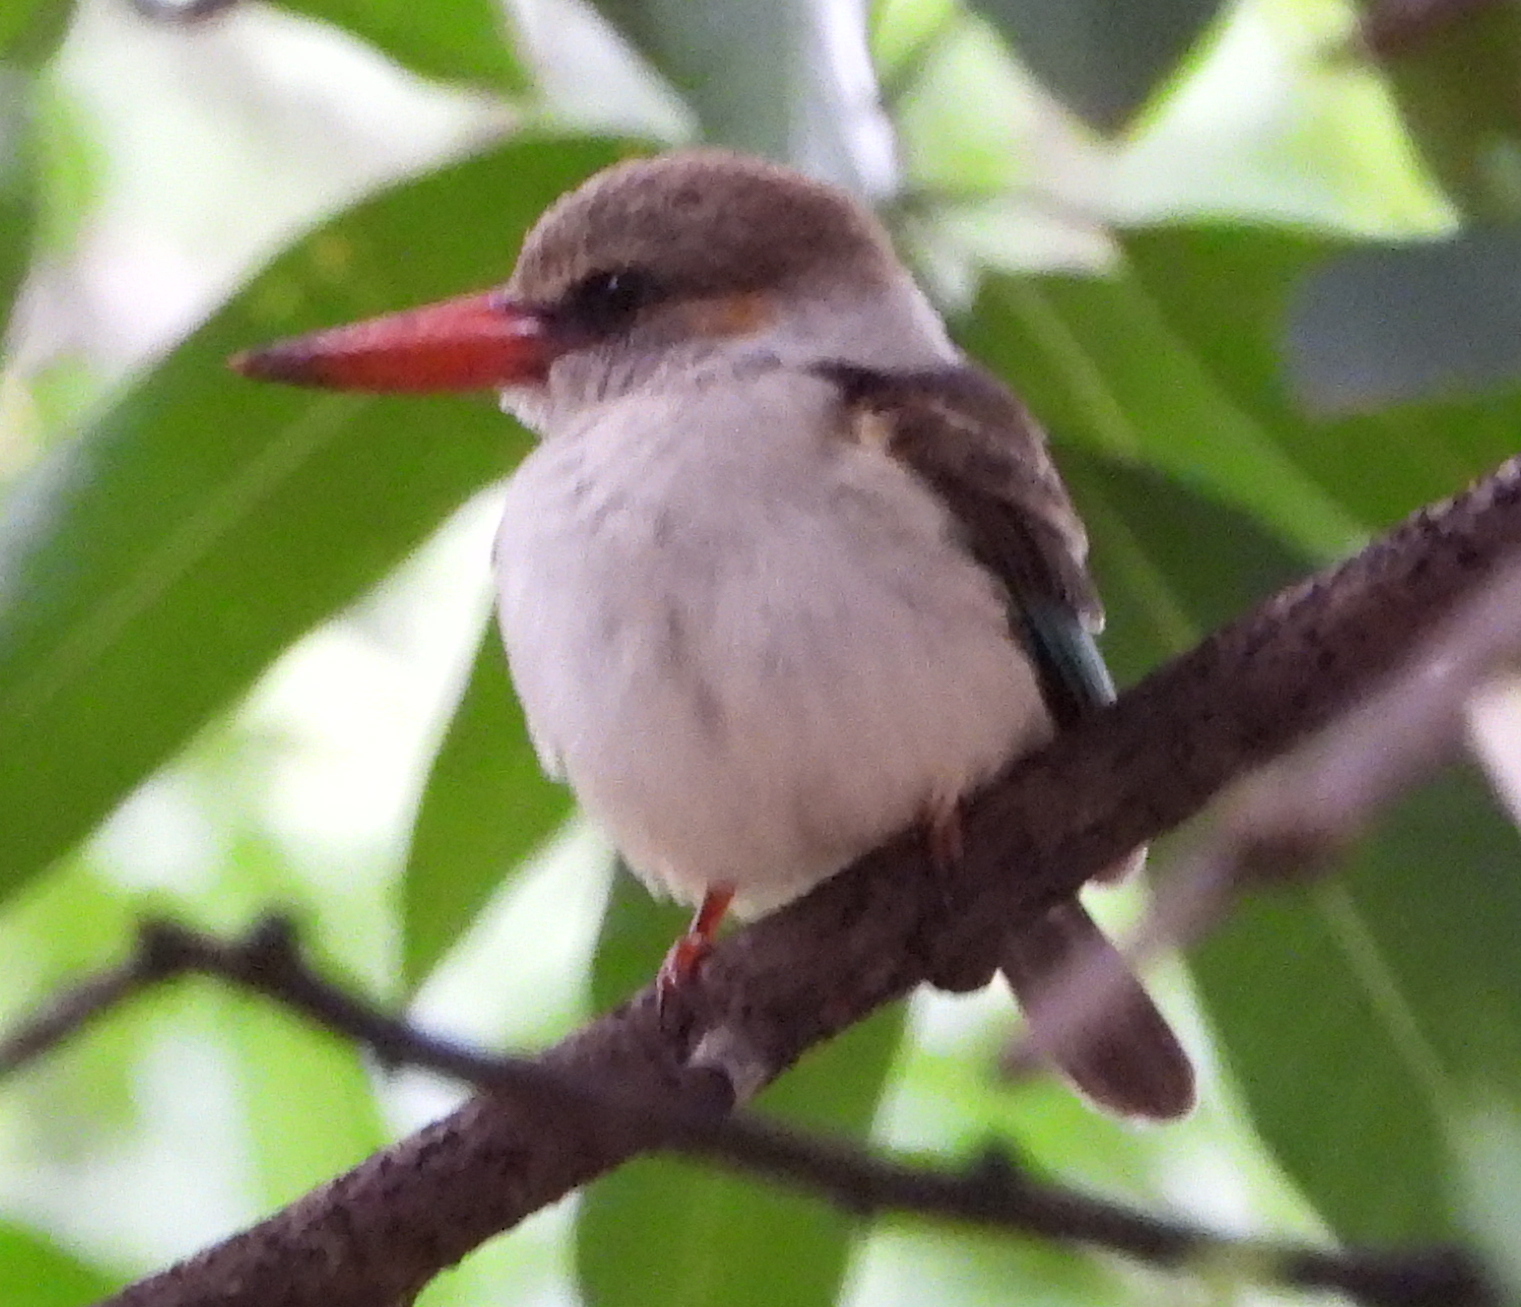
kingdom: Animalia
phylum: Chordata
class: Aves
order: Coraciiformes
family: Alcedinidae
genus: Halcyon
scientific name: Halcyon albiventris
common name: Brown-hooded kingfisher
